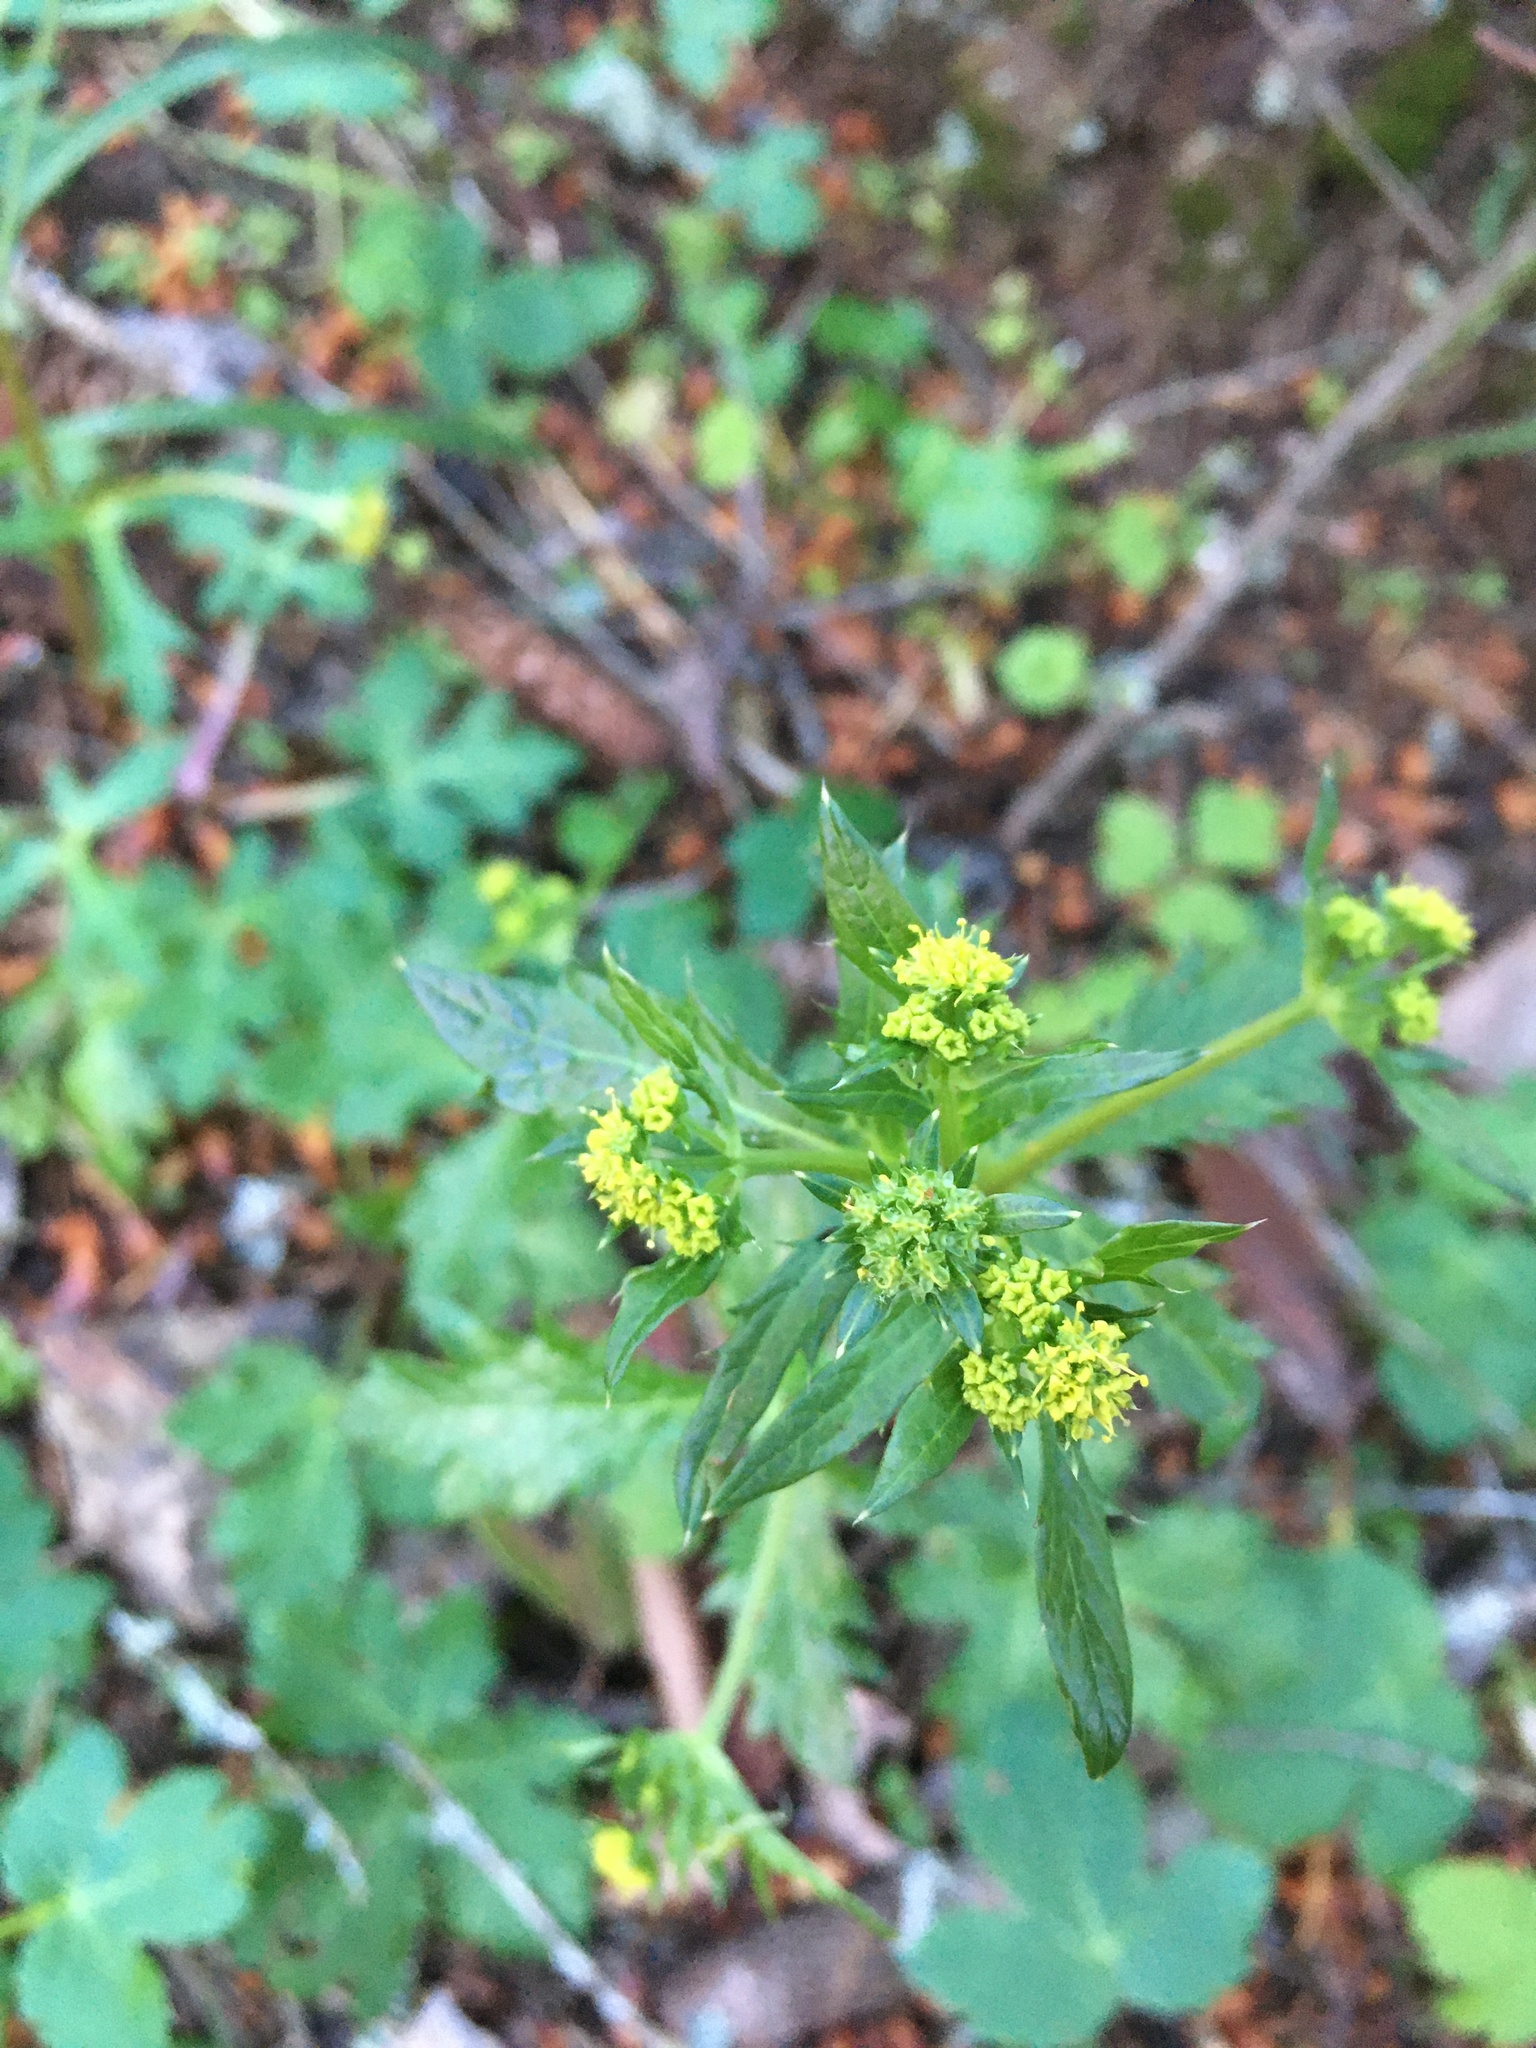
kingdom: Plantae
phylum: Tracheophyta
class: Magnoliopsida
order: Apiales
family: Apiaceae
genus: Sanicula
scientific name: Sanicula crassicaulis
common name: Western snakeroot
